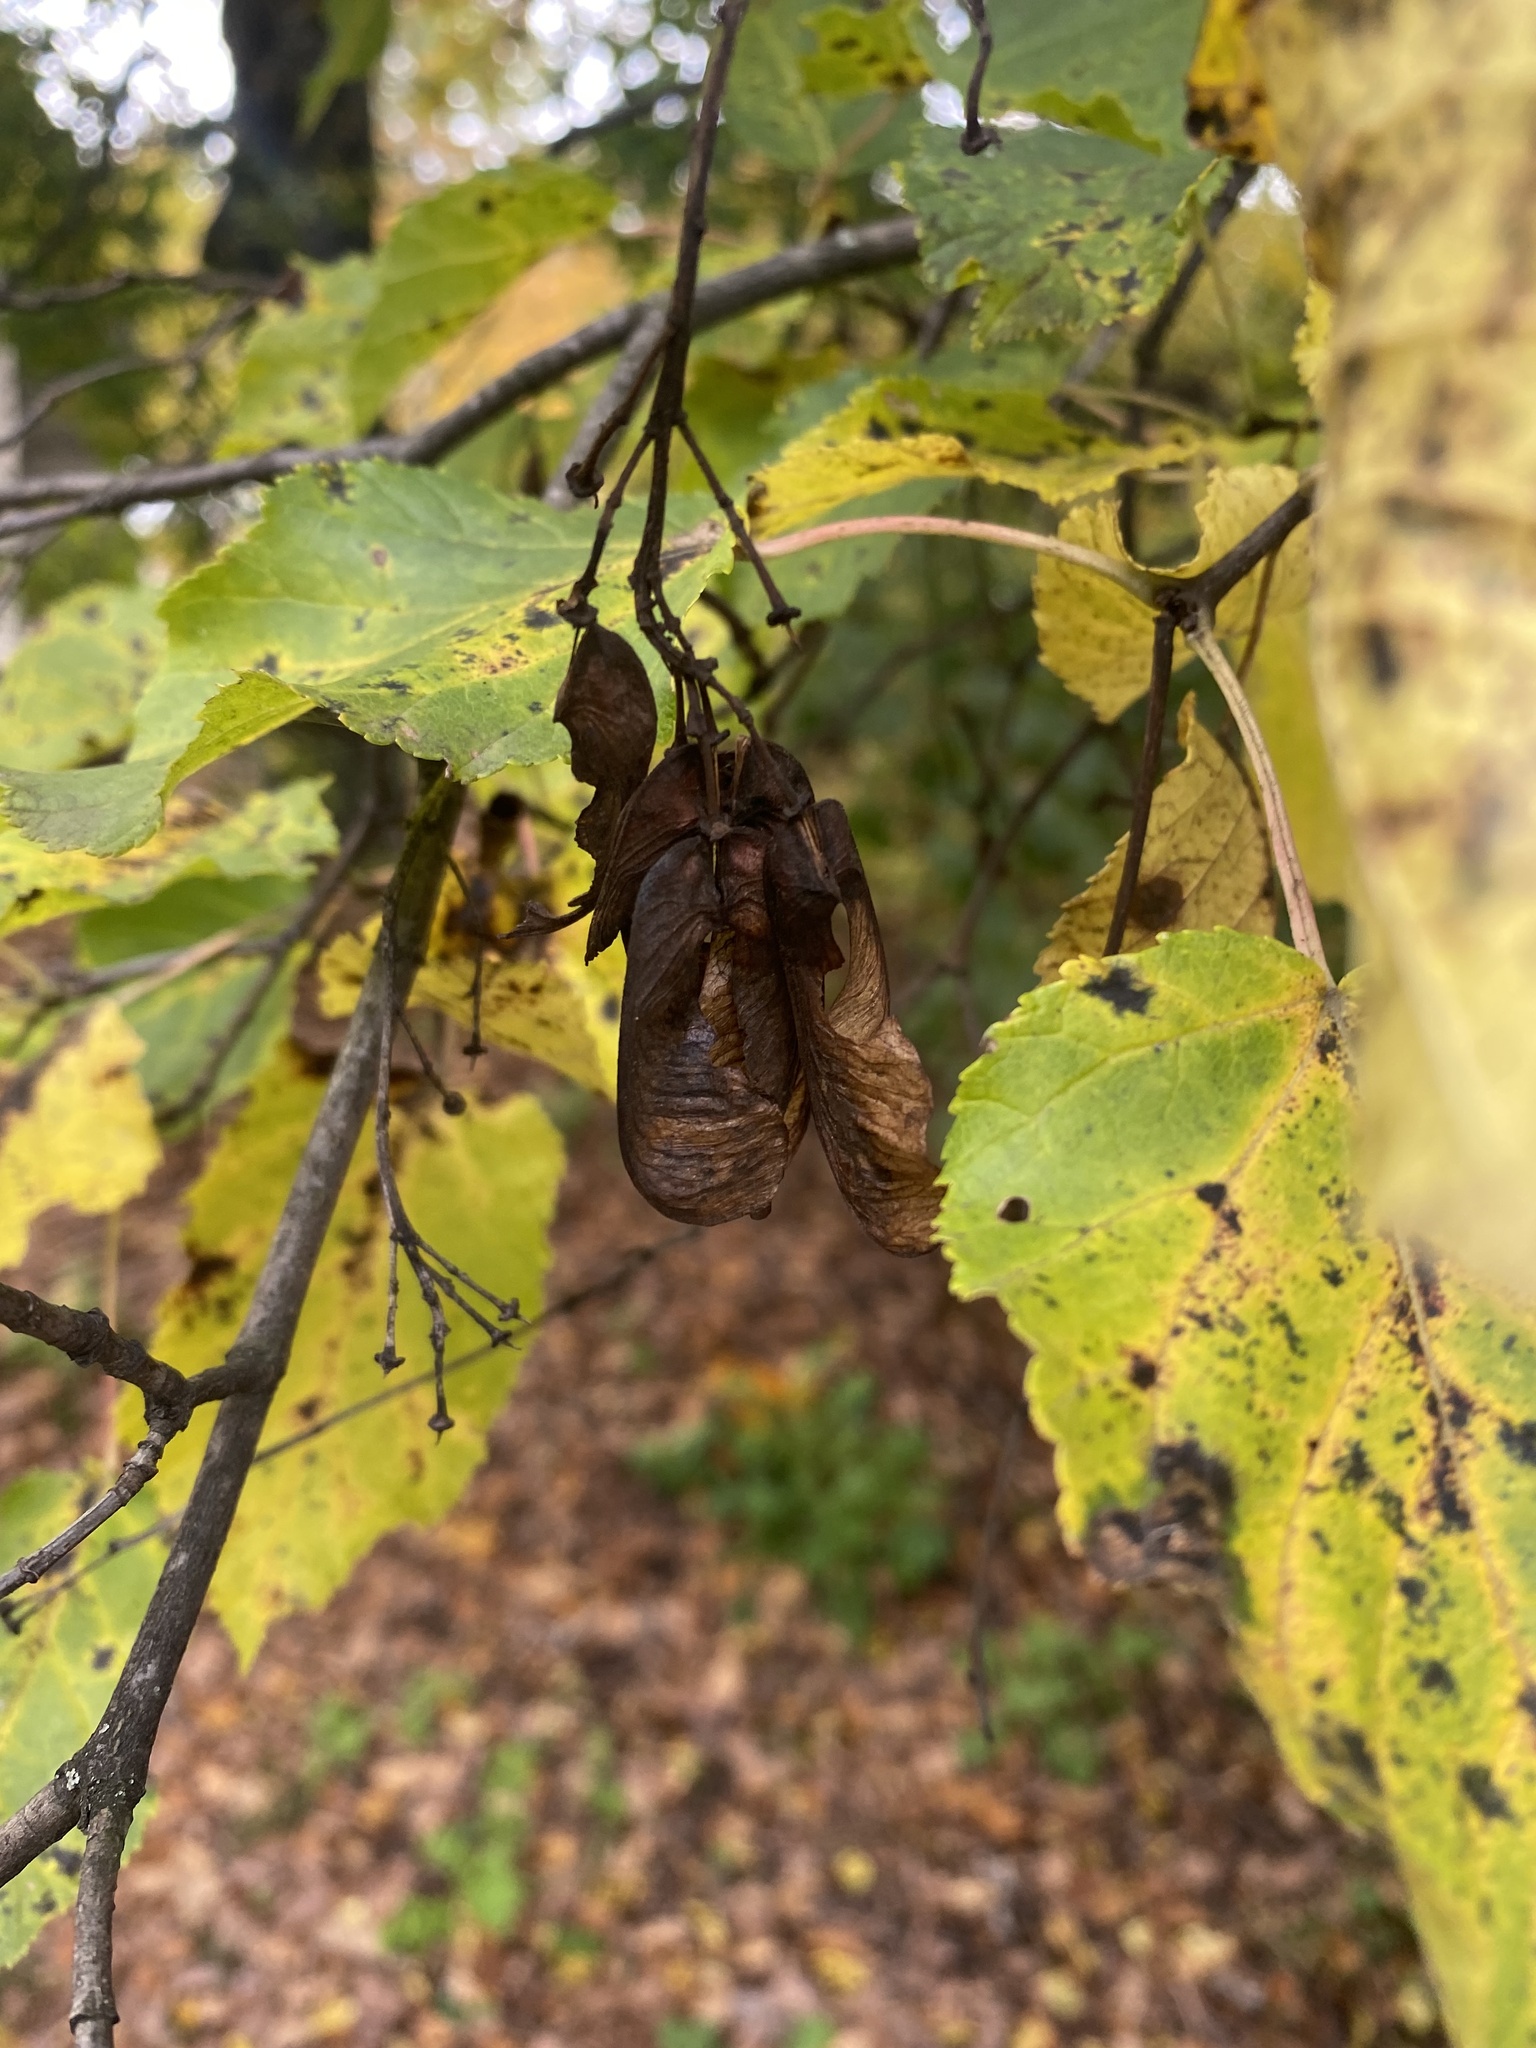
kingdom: Plantae
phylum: Tracheophyta
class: Magnoliopsida
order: Sapindales
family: Sapindaceae
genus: Acer
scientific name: Acer tataricum
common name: Tartar maple
